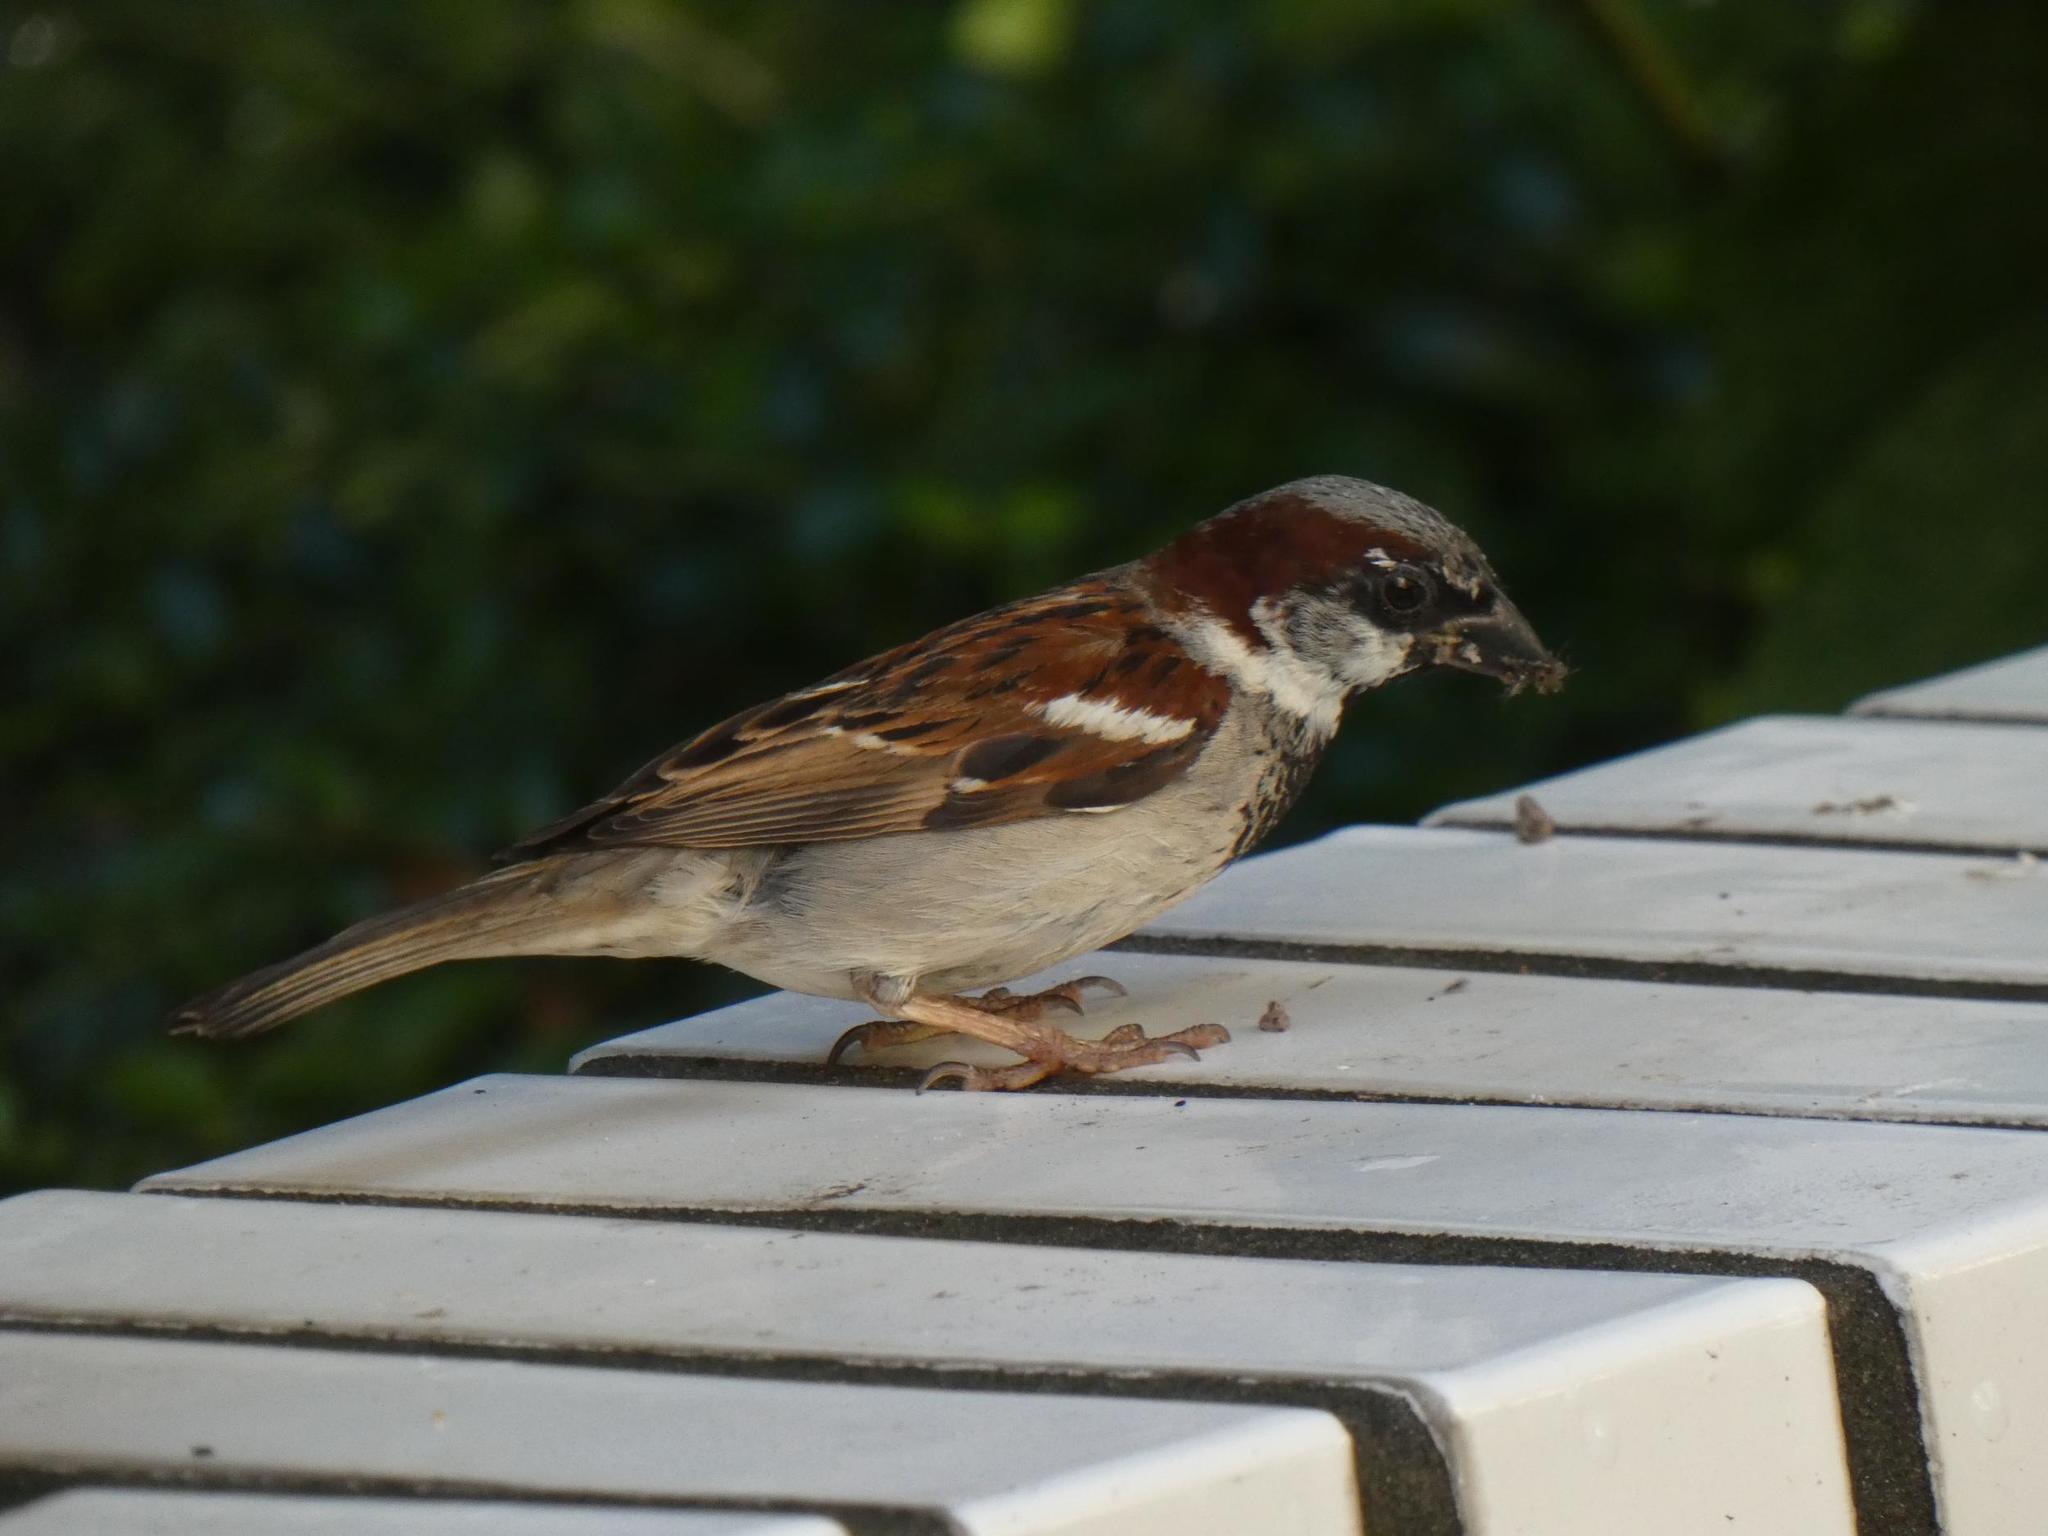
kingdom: Animalia
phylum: Chordata
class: Aves
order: Passeriformes
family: Passeridae
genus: Passer
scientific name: Passer domesticus
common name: House sparrow
